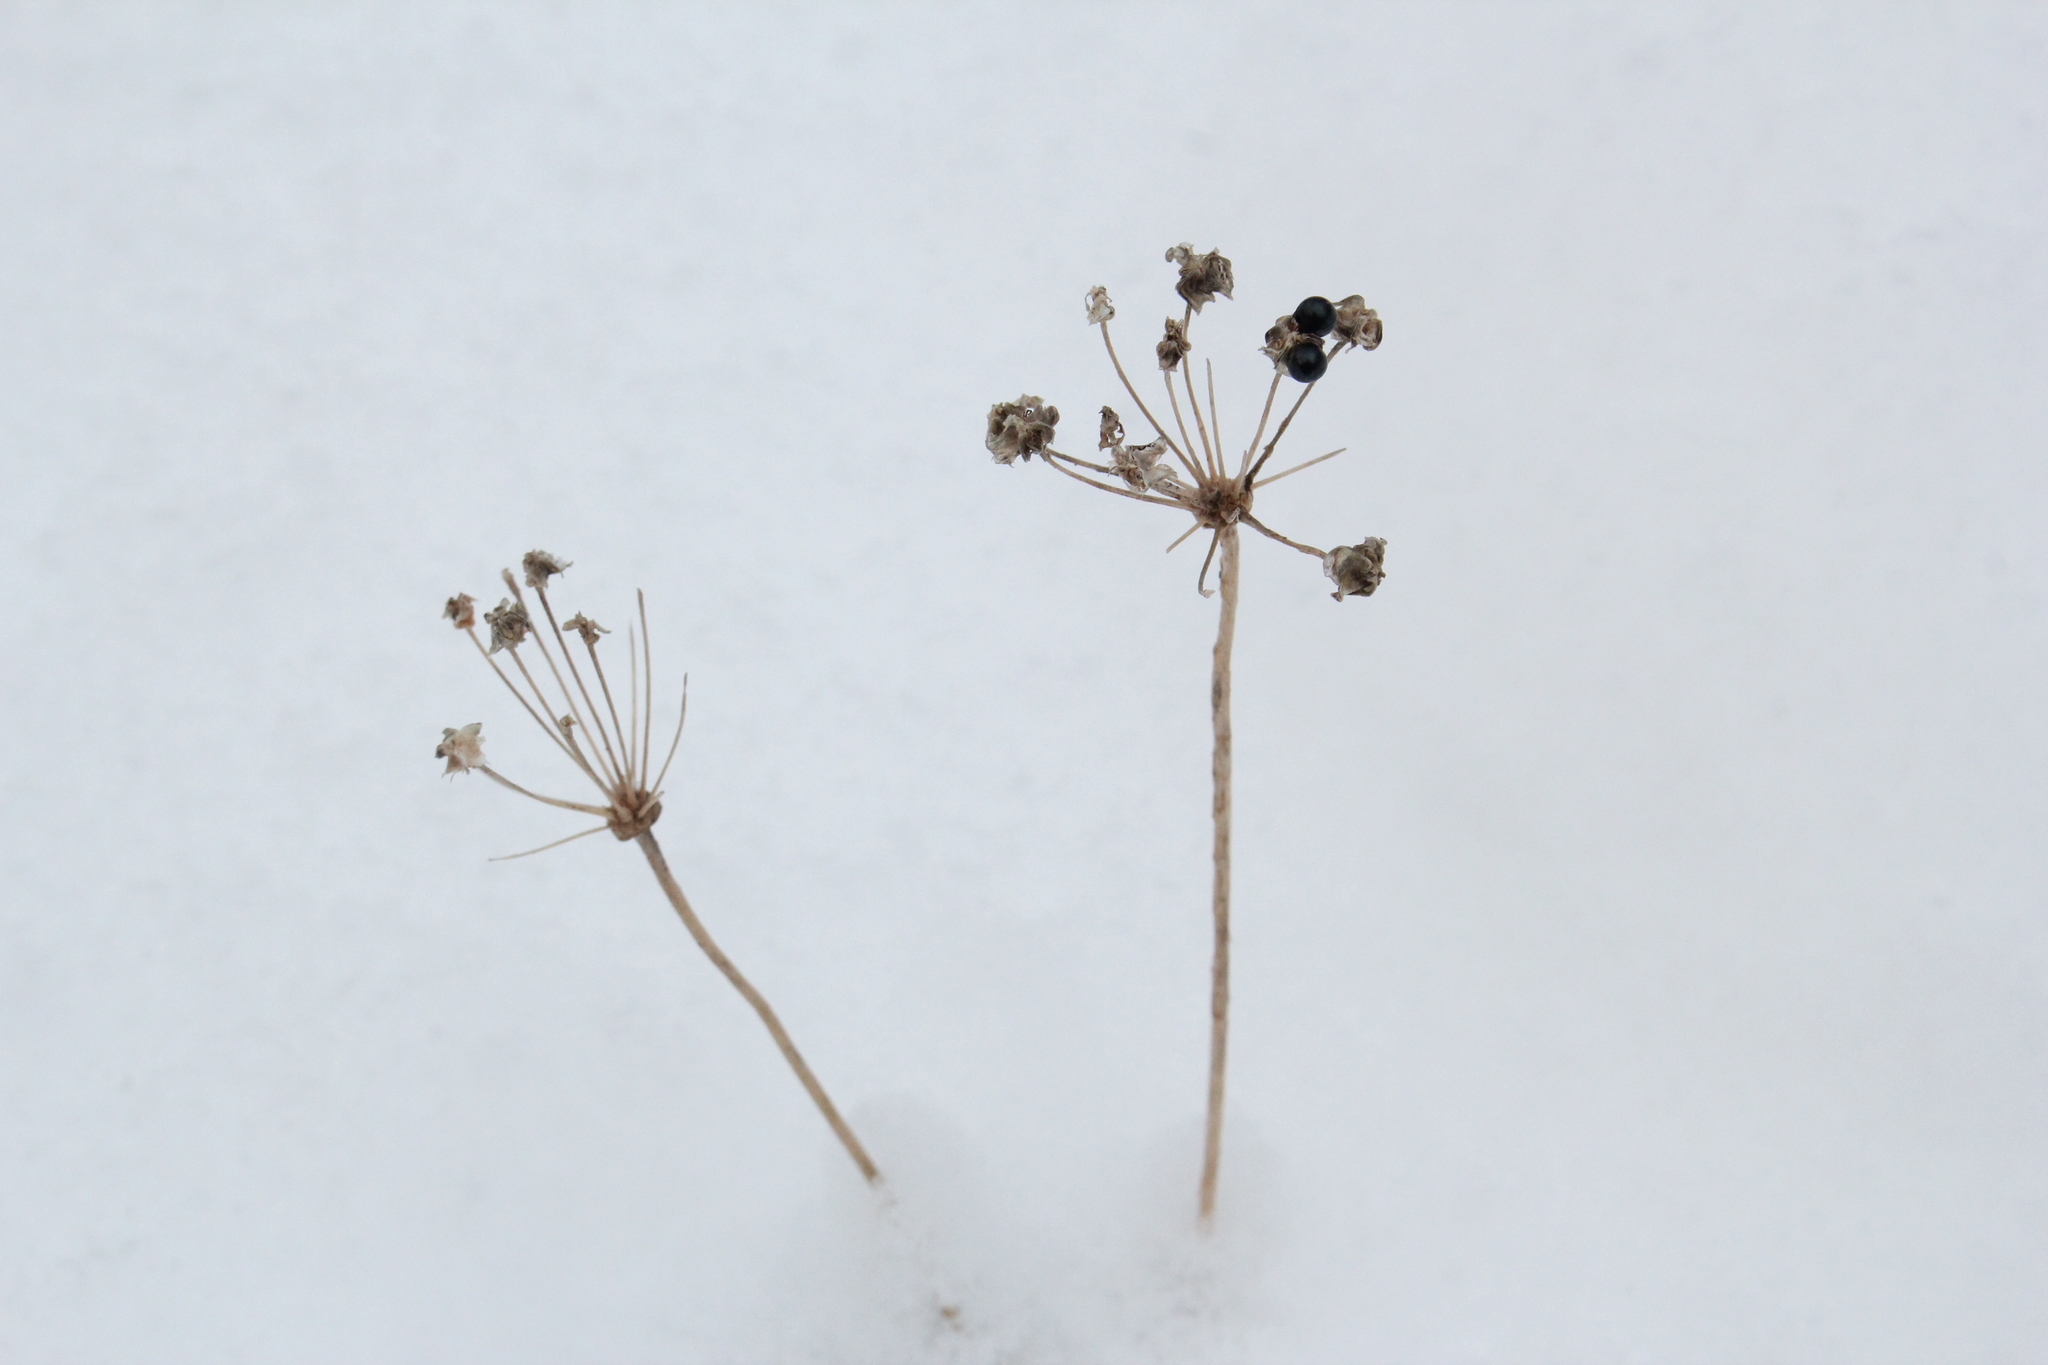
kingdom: Plantae
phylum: Tracheophyta
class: Liliopsida
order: Asparagales
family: Amaryllidaceae
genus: Allium
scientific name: Allium tricoccum
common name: Ramp
